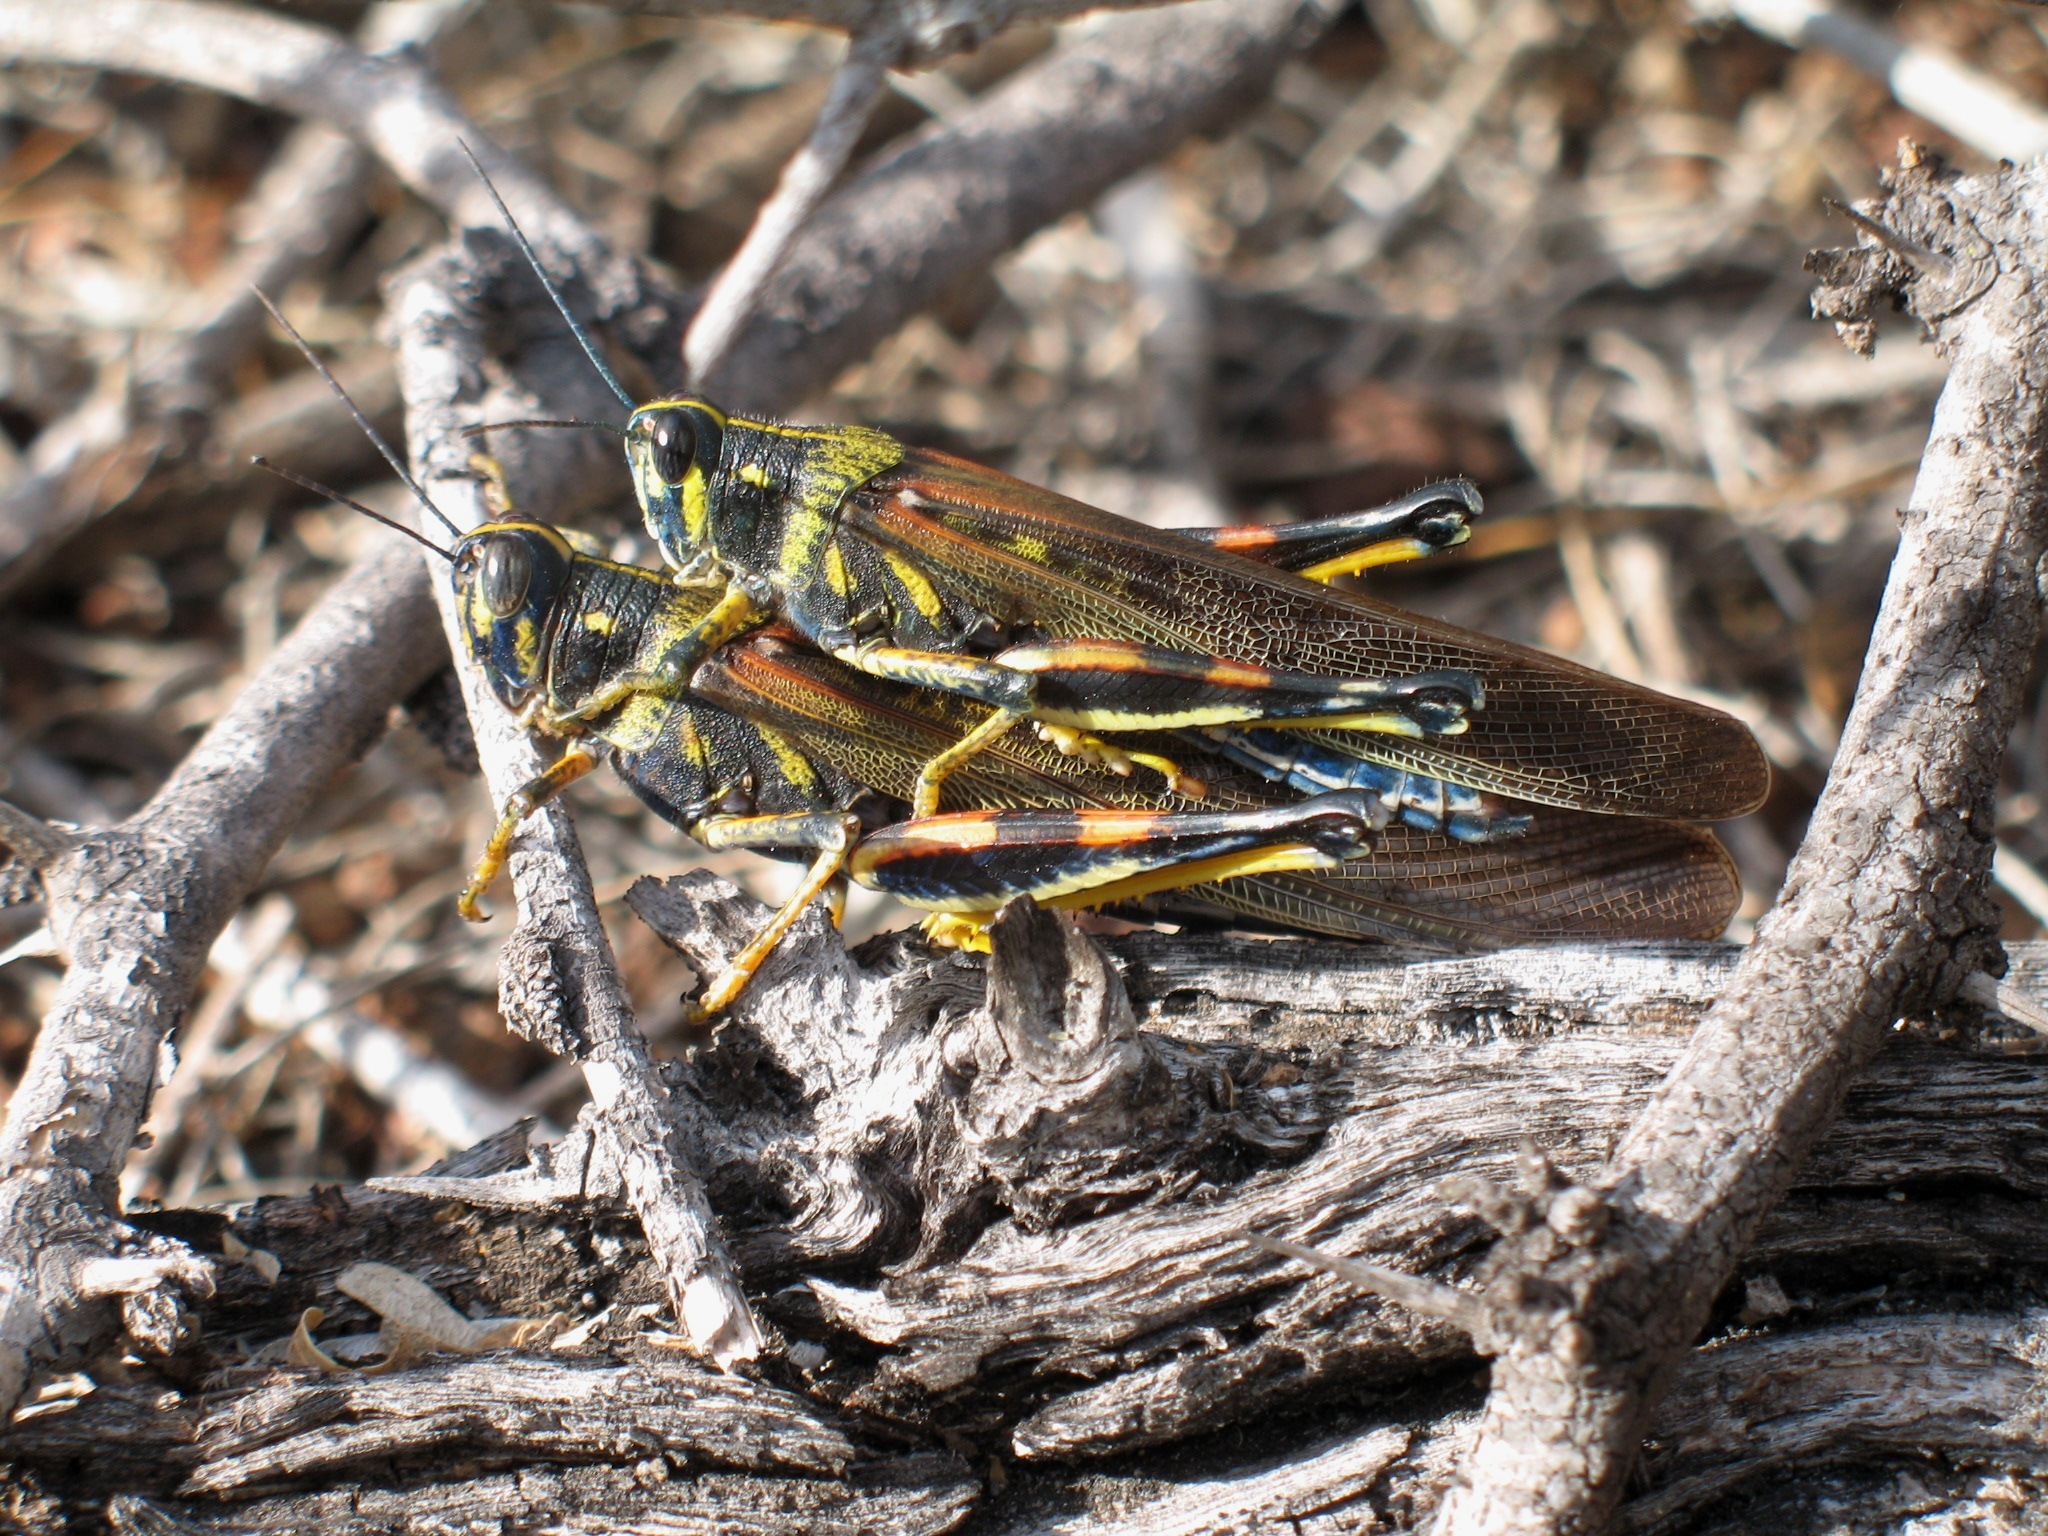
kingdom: Animalia
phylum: Arthropoda
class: Insecta
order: Orthoptera
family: Acrididae
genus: Schistocerca
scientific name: Schistocerca melanocera
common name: Large painted locust
